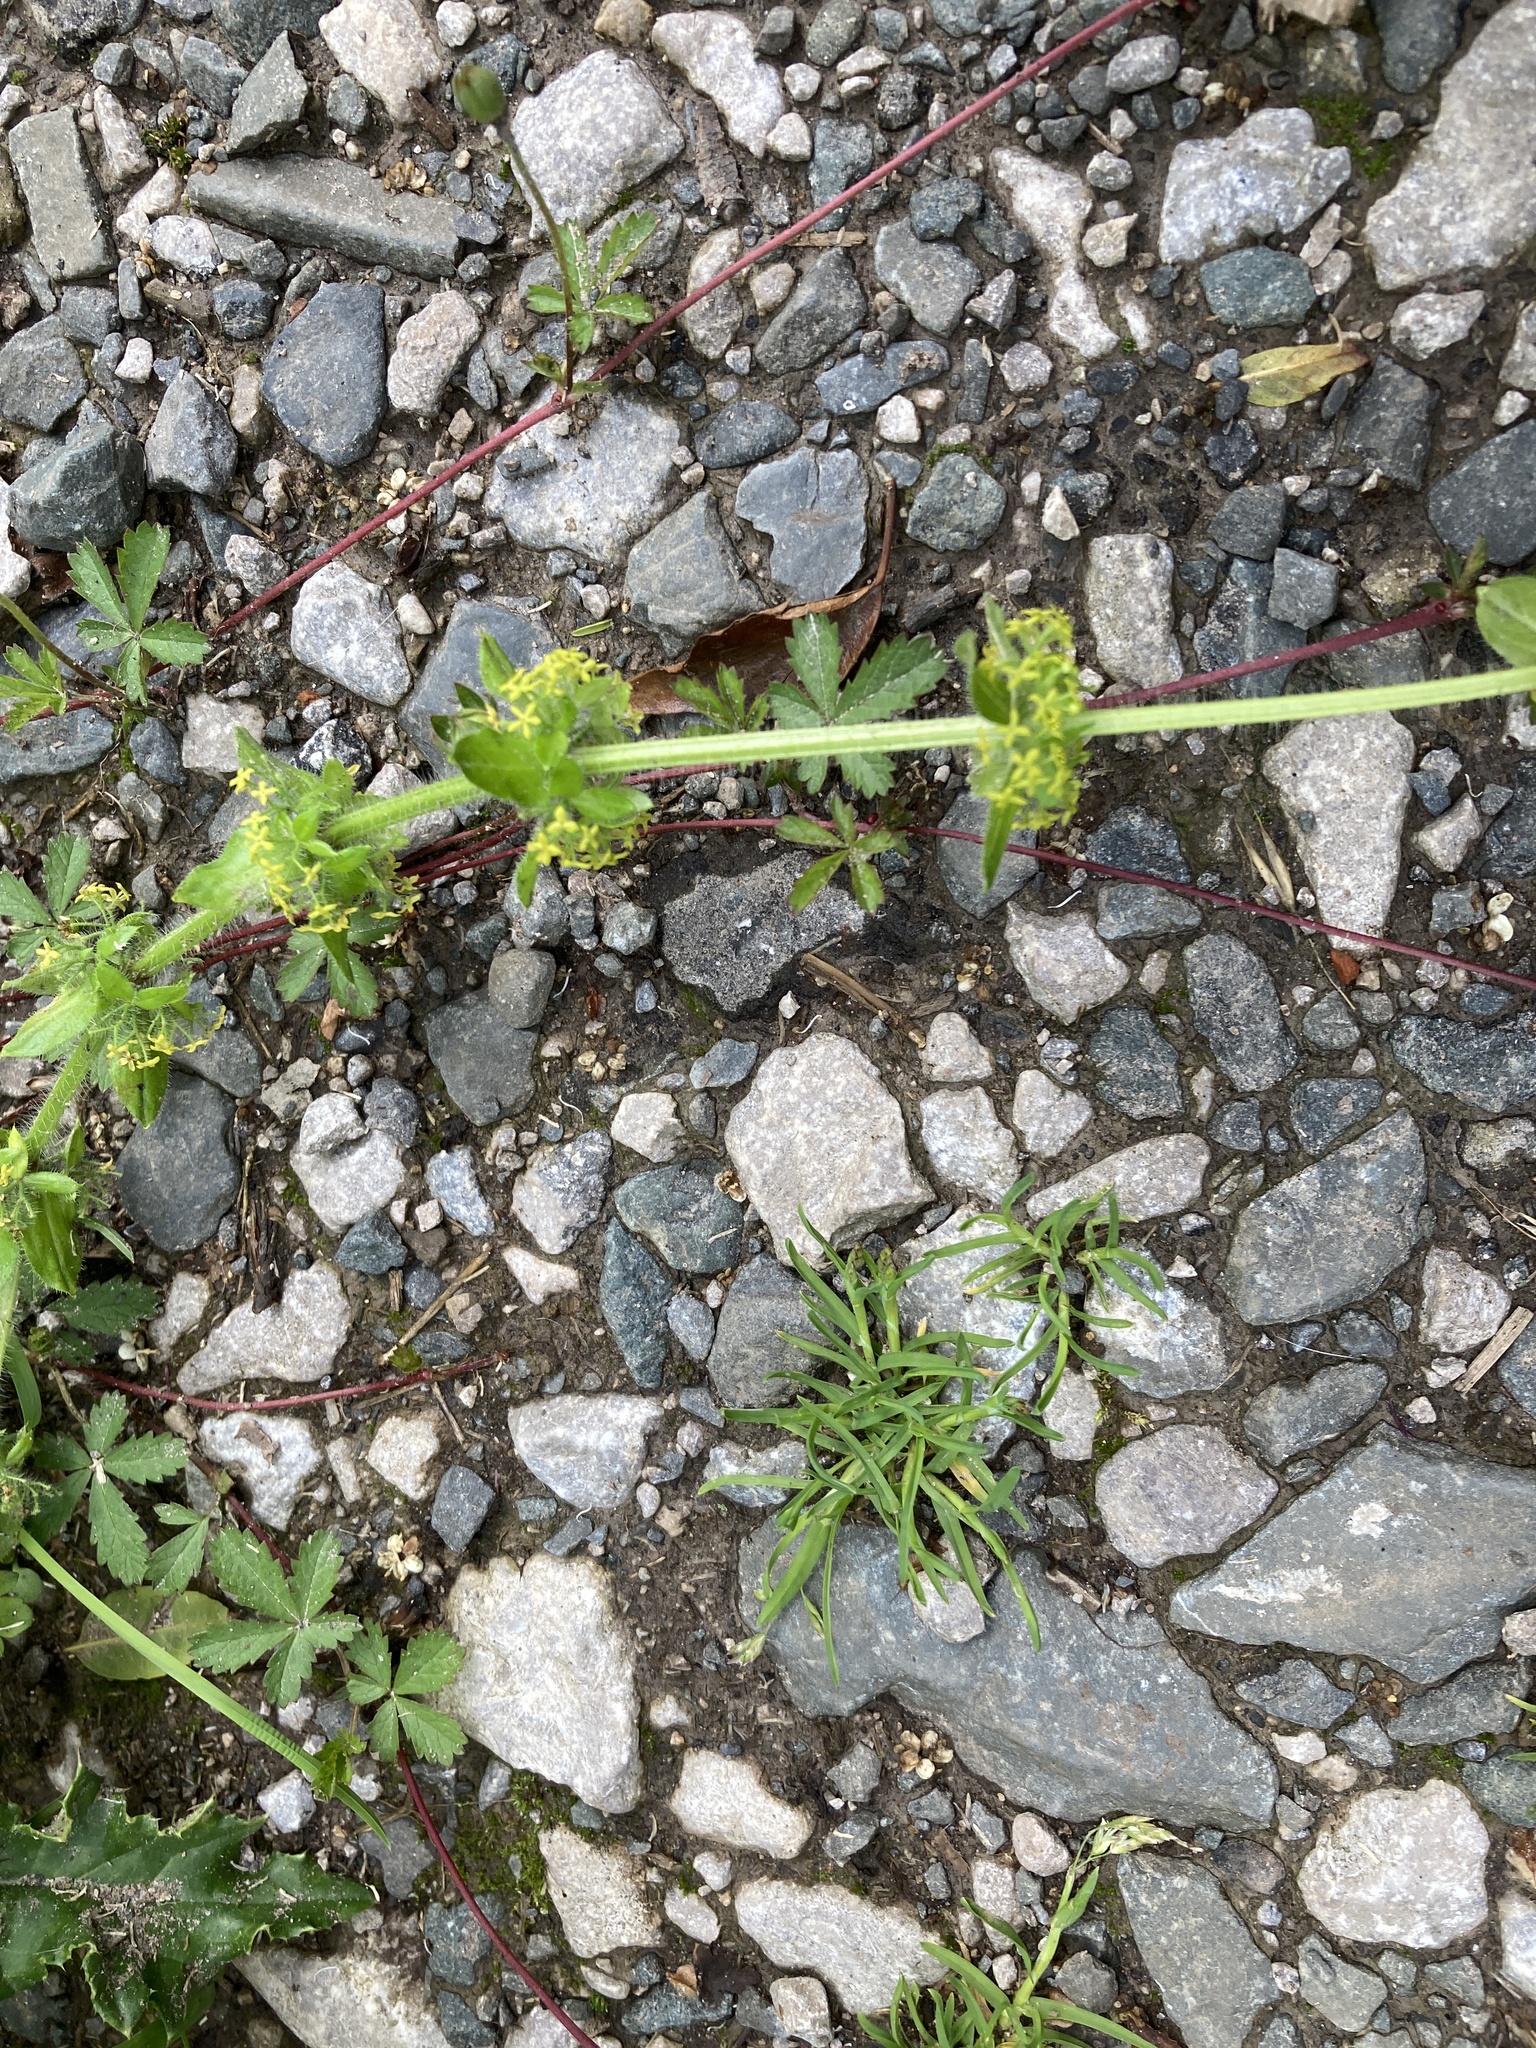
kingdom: Plantae
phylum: Tracheophyta
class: Magnoliopsida
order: Gentianales
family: Rubiaceae
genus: Cruciata
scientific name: Cruciata laevipes
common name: Crosswort
